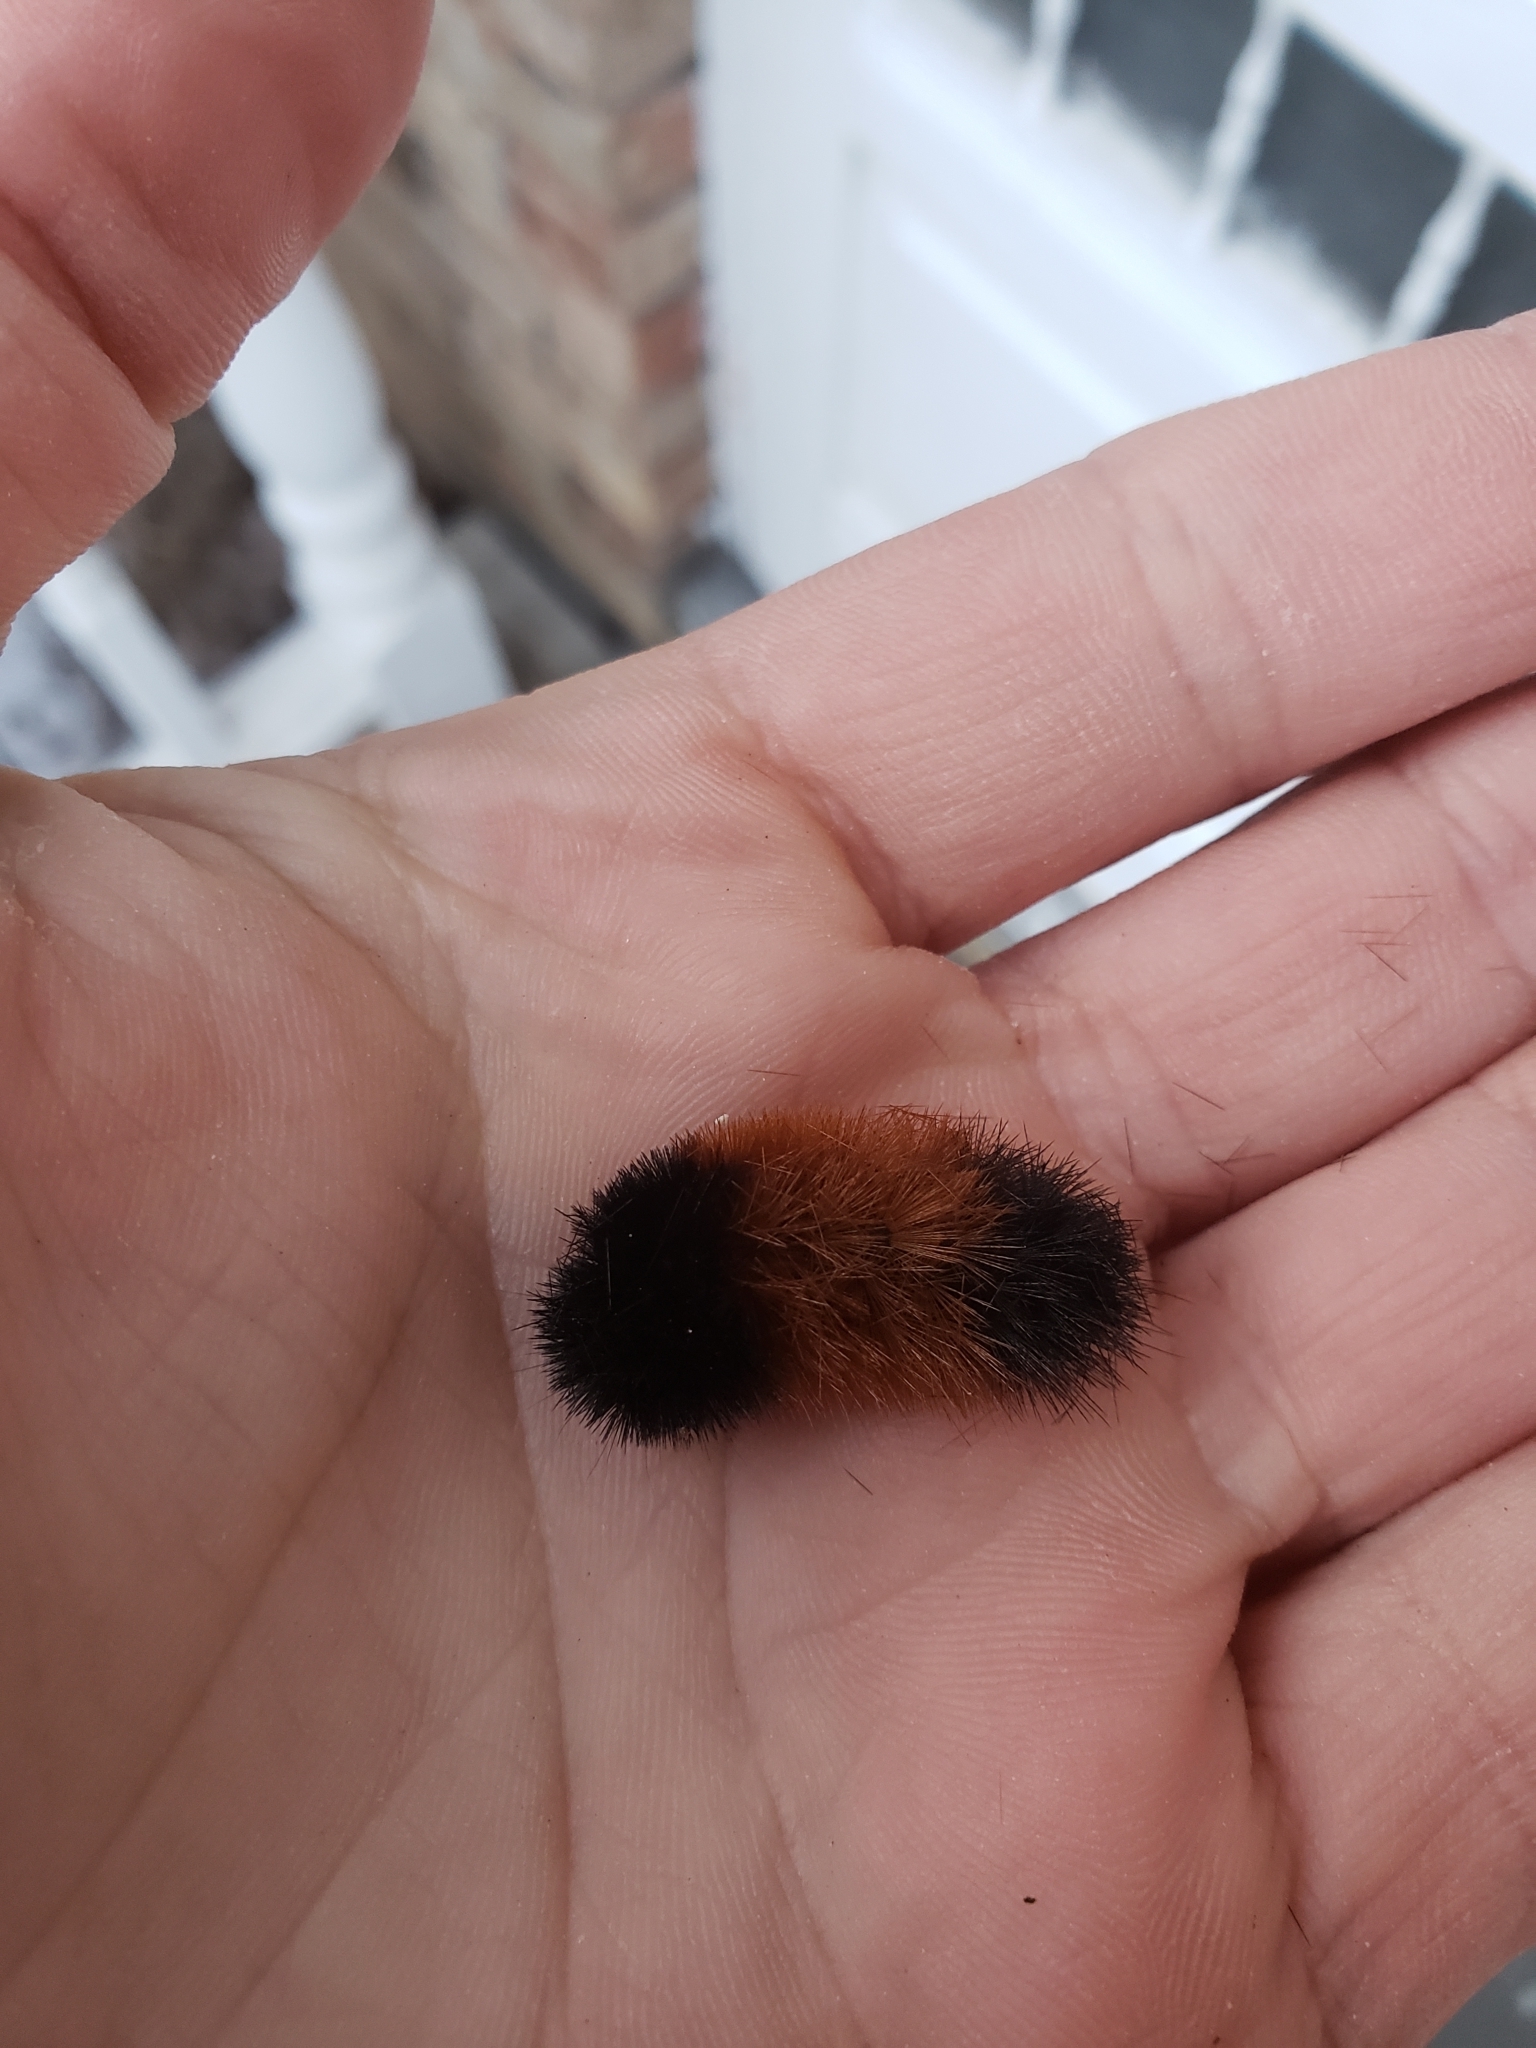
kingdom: Animalia
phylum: Arthropoda
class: Insecta
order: Lepidoptera
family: Erebidae
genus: Pyrrharctia
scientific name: Pyrrharctia isabella
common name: Isabella tiger moth
